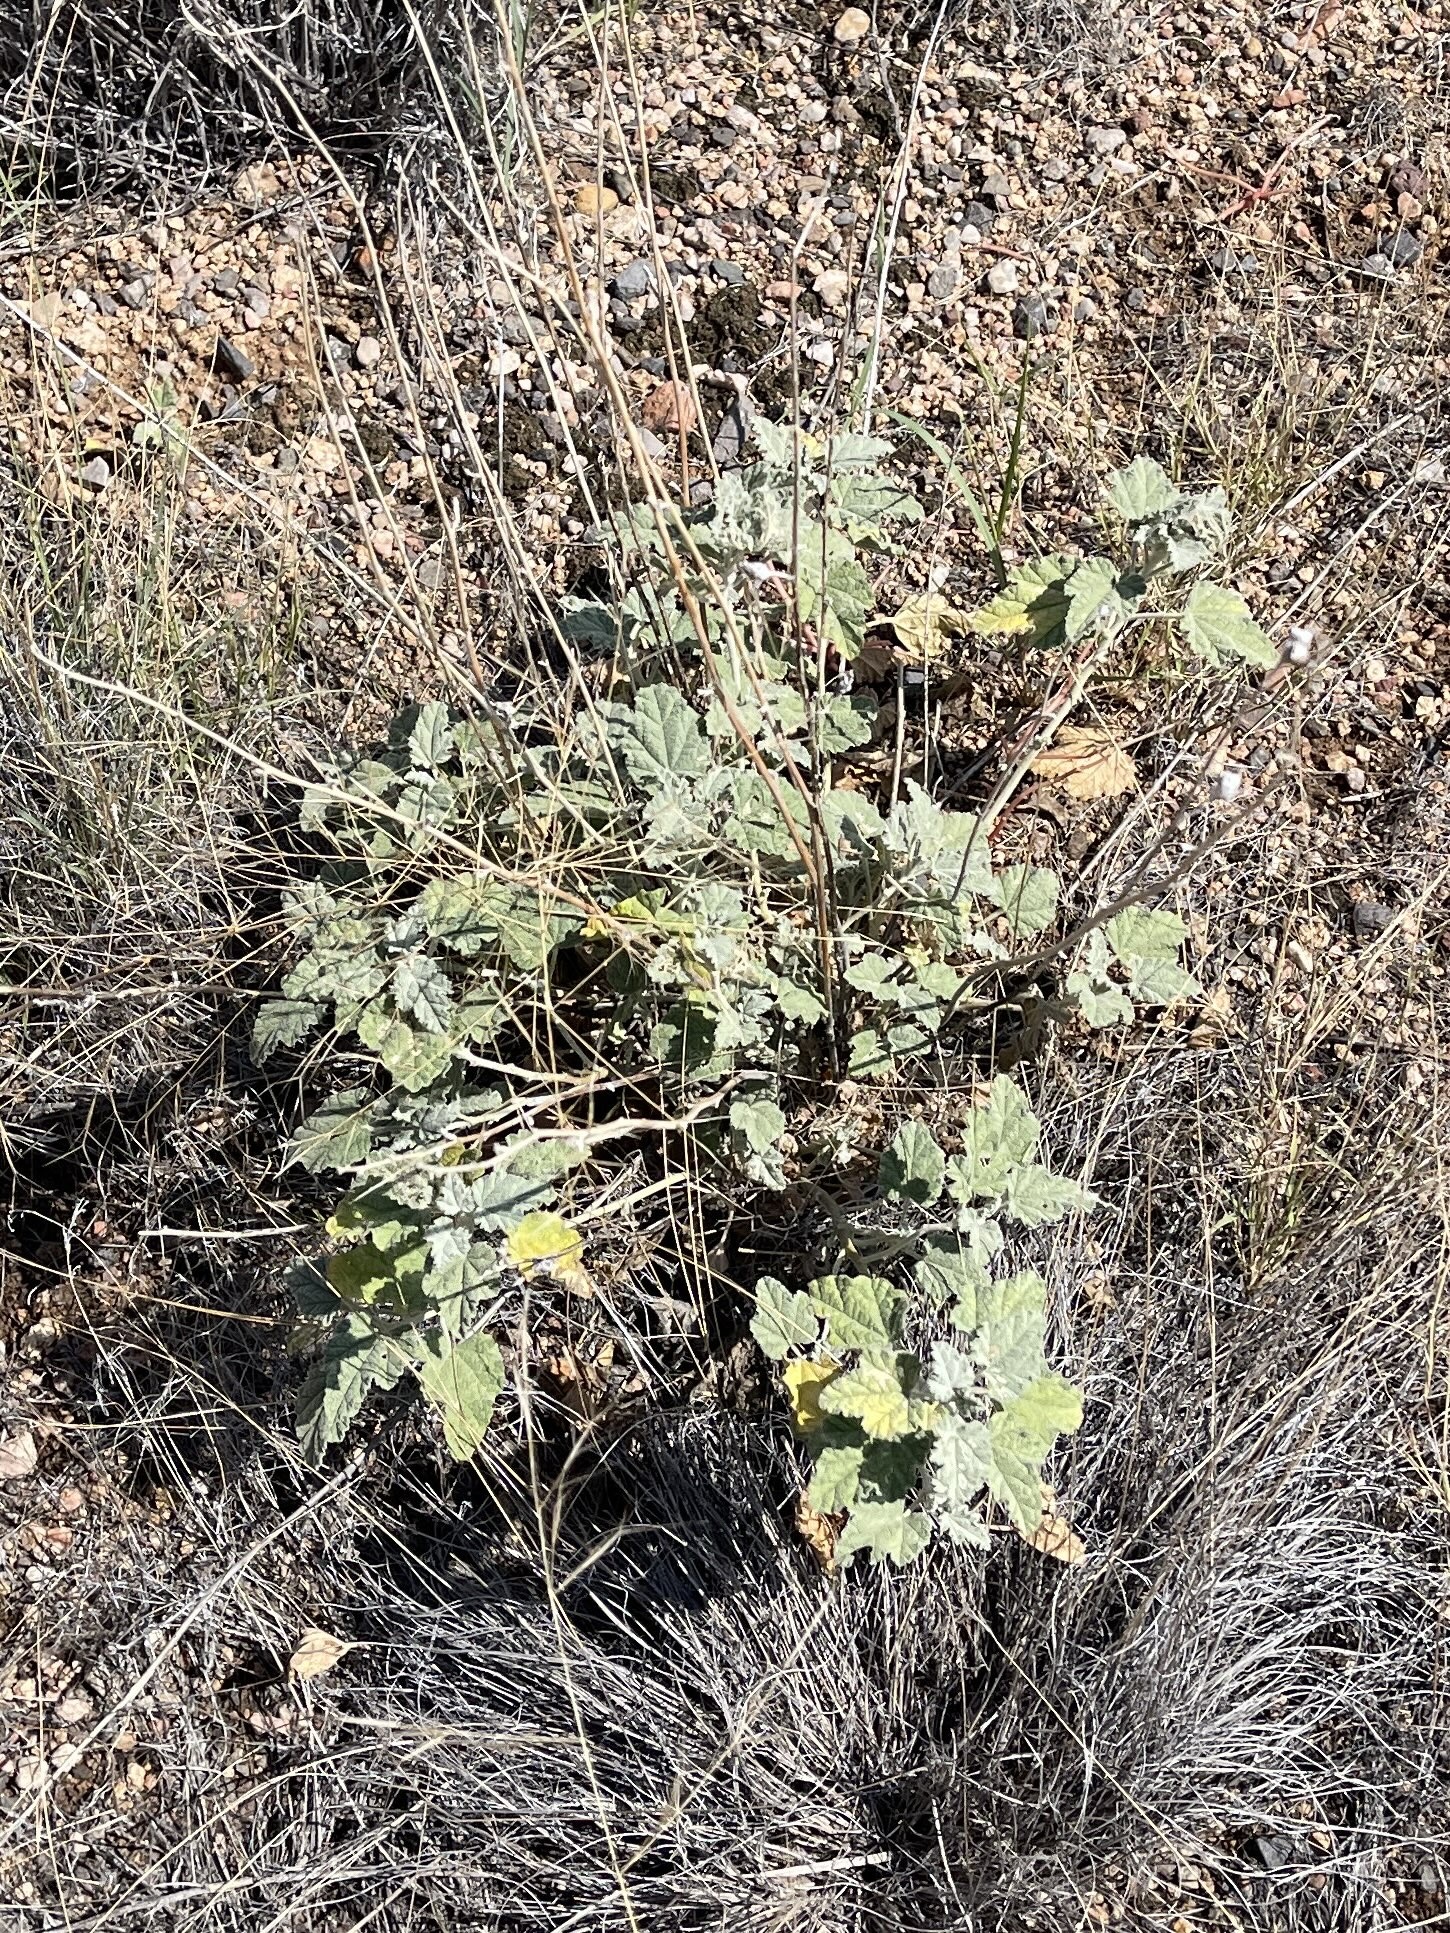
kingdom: Plantae
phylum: Tracheophyta
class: Magnoliopsida
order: Malvales
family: Malvaceae
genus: Sphaeralcea
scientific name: Sphaeralcea ambigua
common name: Apricot globe-mallow
